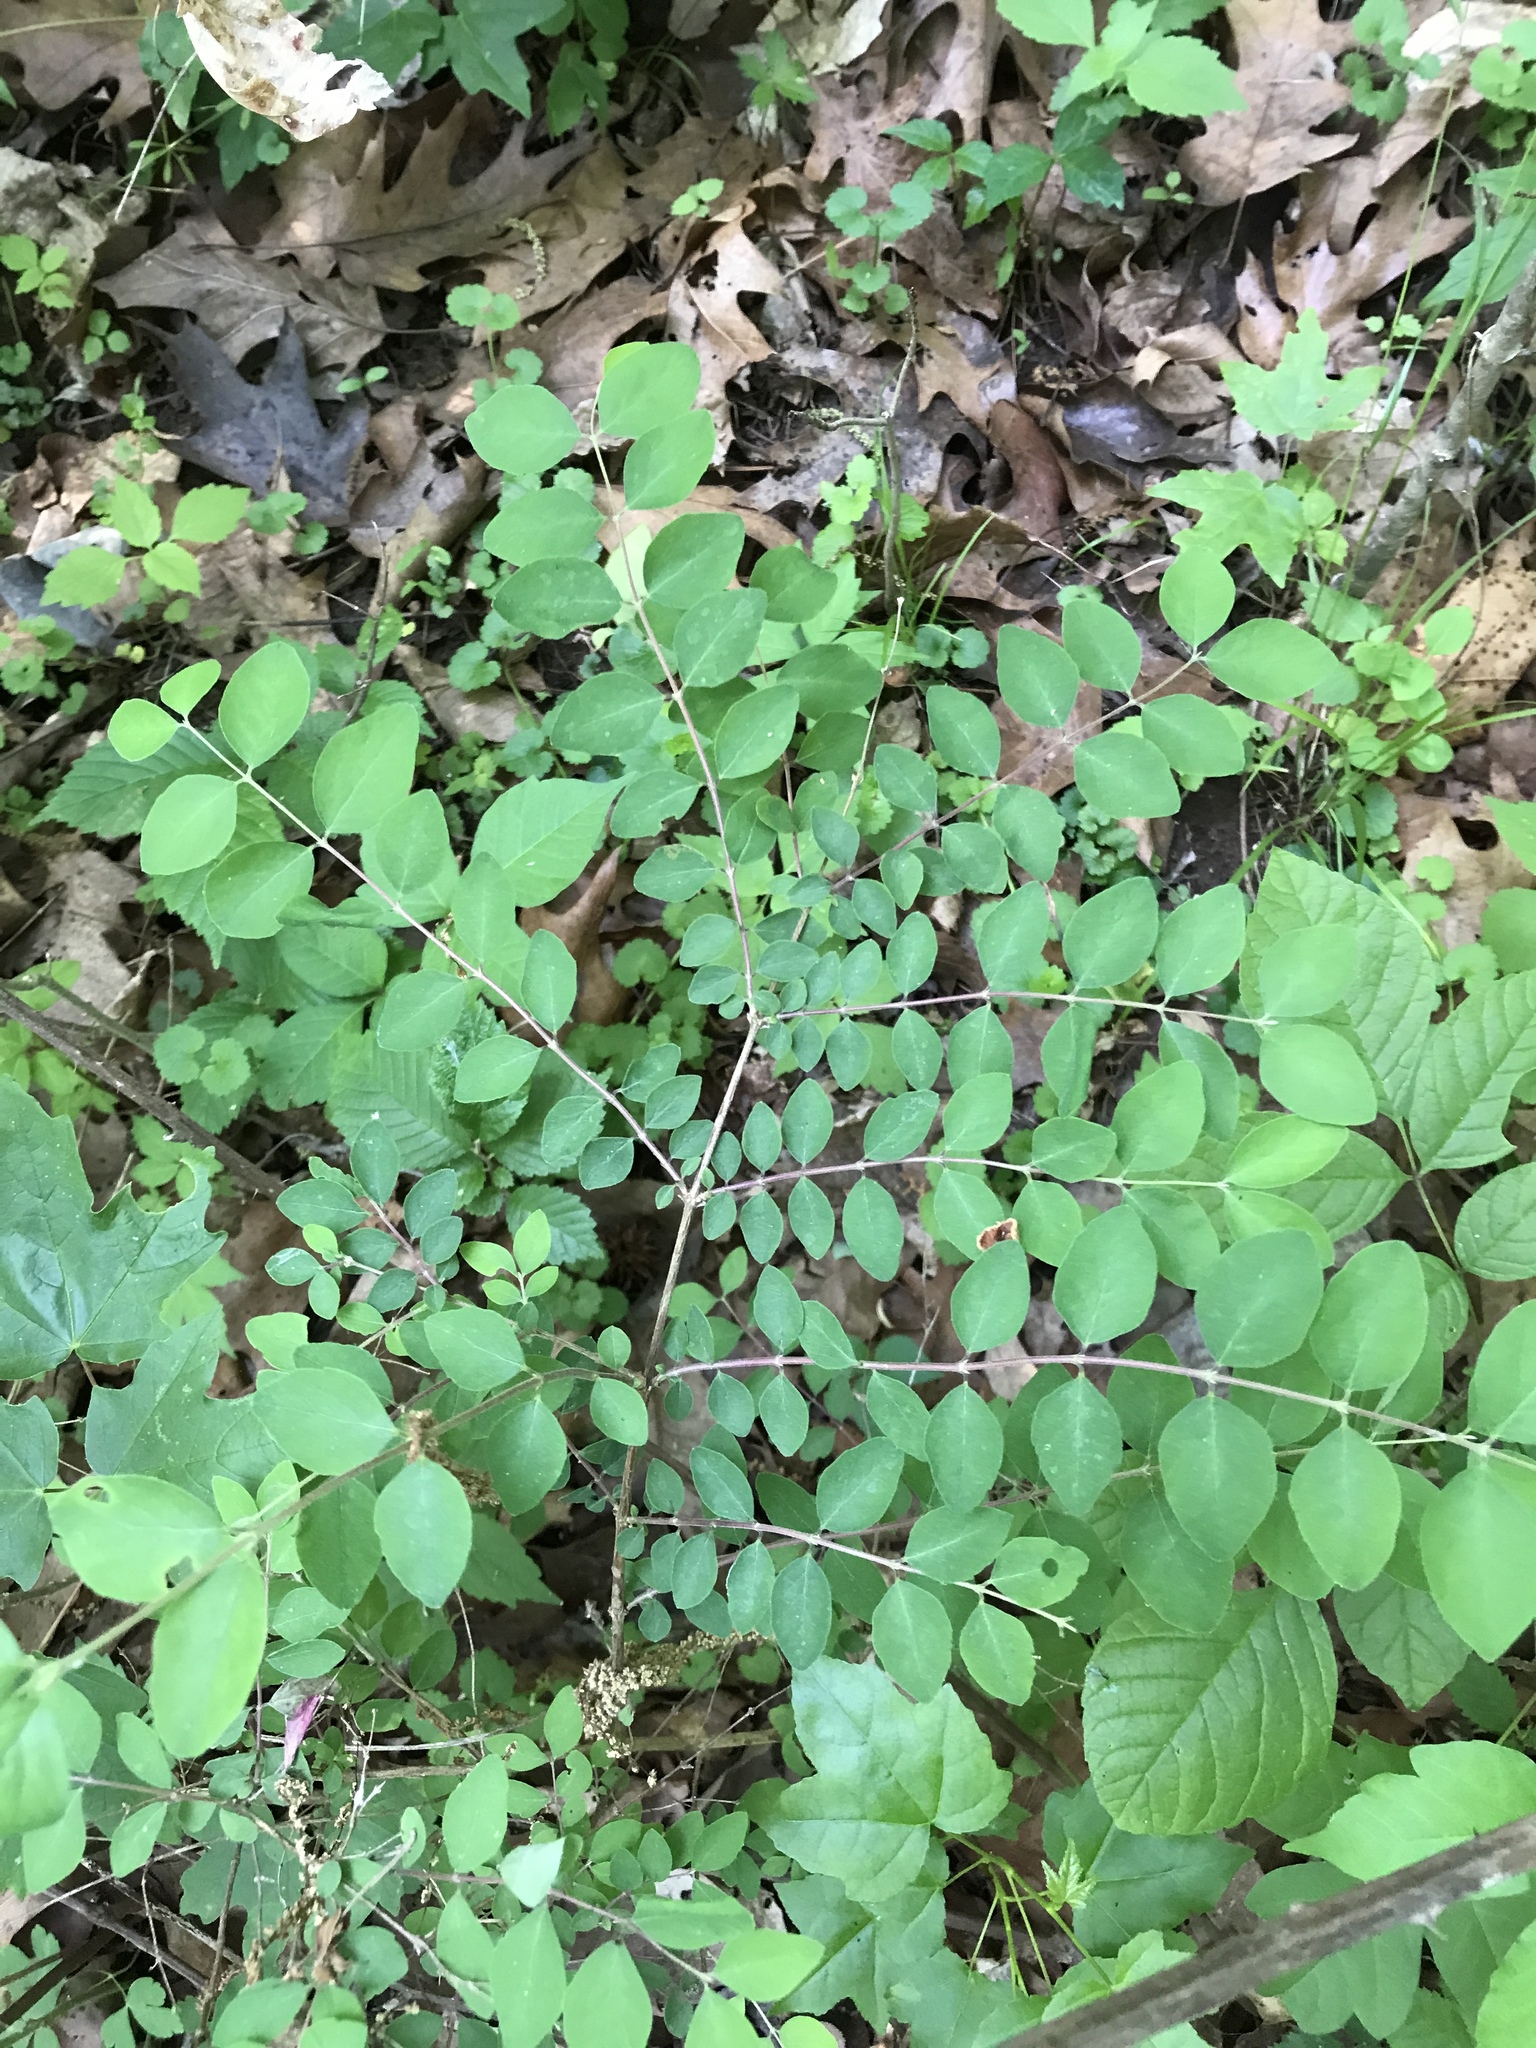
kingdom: Plantae
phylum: Tracheophyta
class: Magnoliopsida
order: Dipsacales
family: Caprifoliaceae
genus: Symphoricarpos
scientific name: Symphoricarpos orbiculatus
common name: Coralberry
